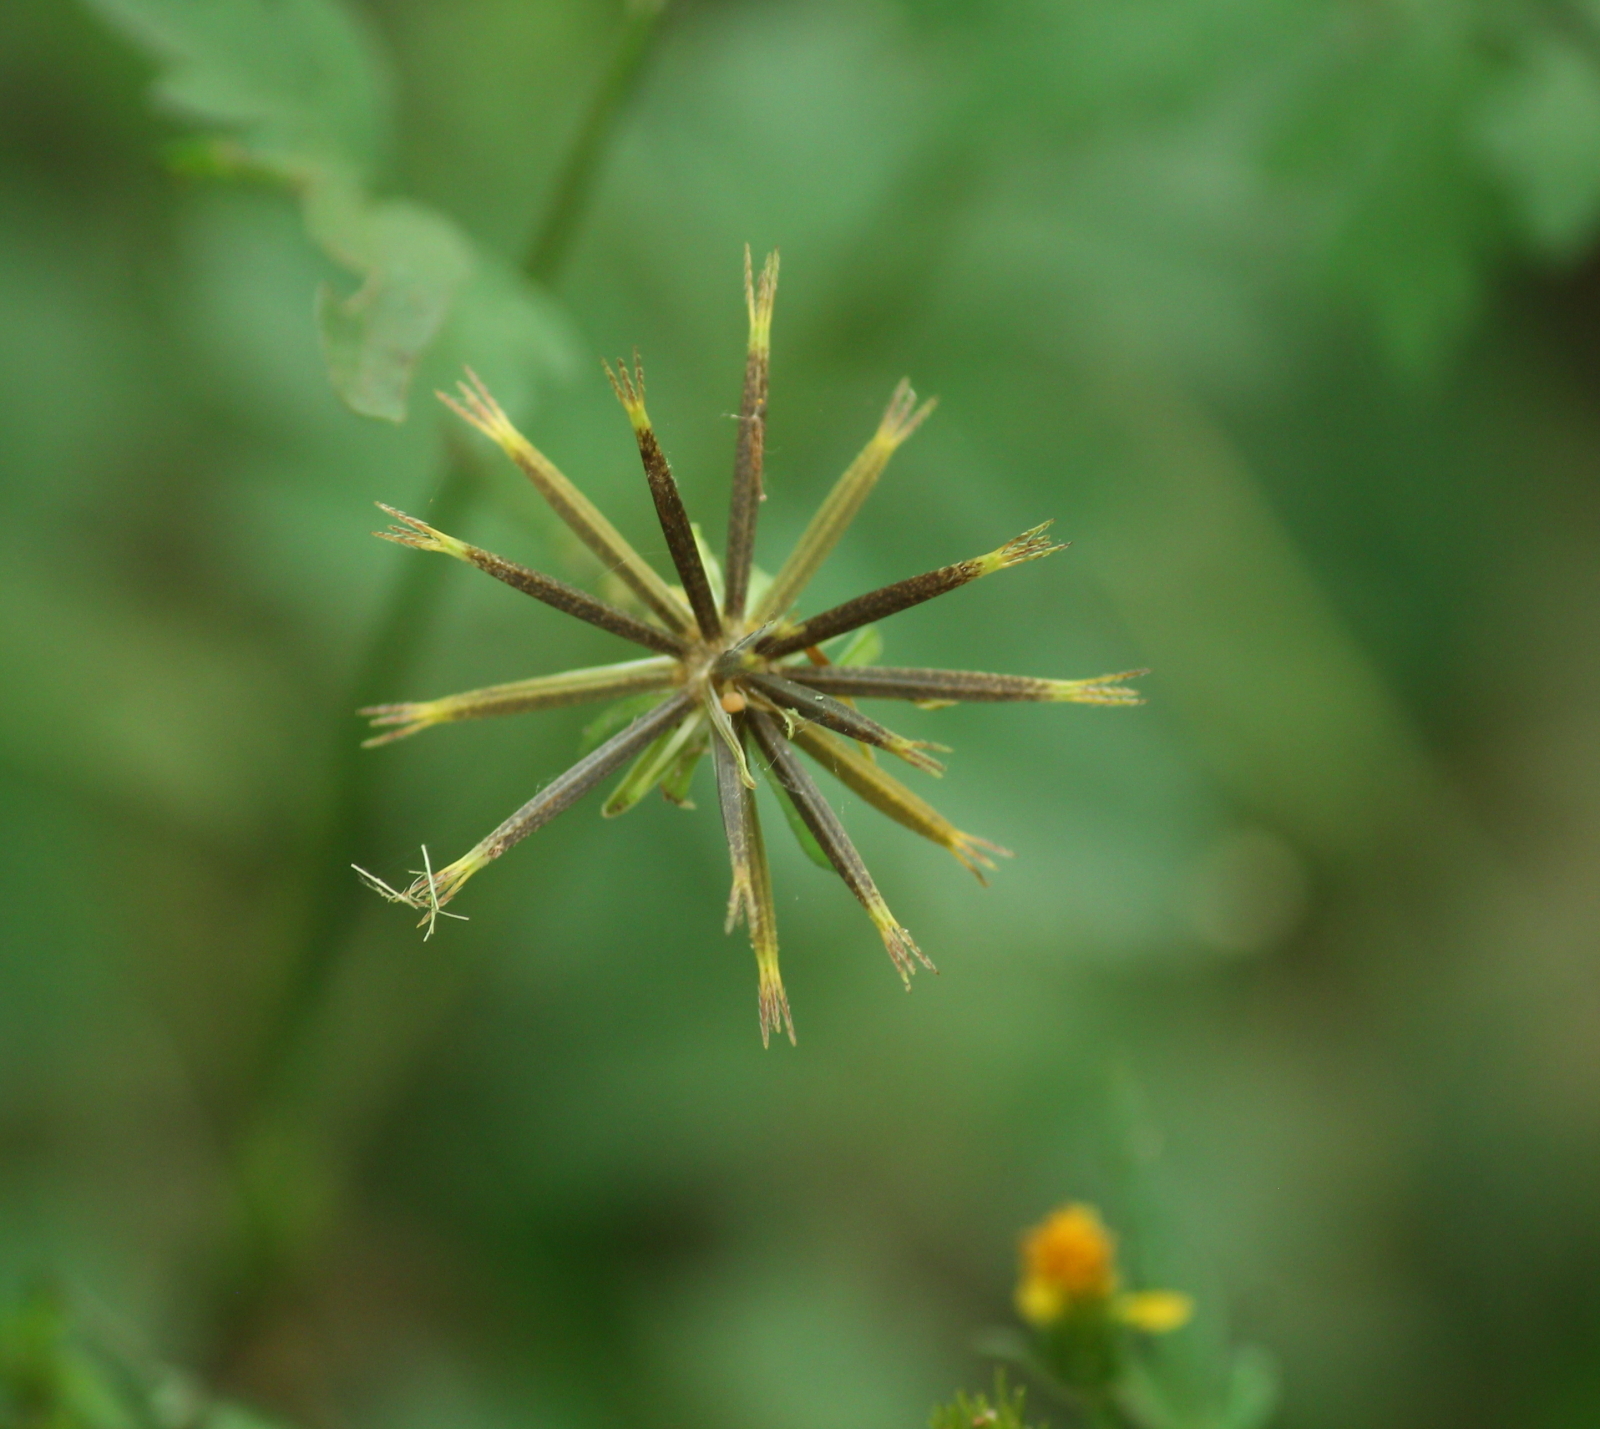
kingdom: Plantae
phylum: Tracheophyta
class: Magnoliopsida
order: Asterales
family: Asteraceae
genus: Bidens
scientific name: Bidens bipinnata
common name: Spanish-needles
